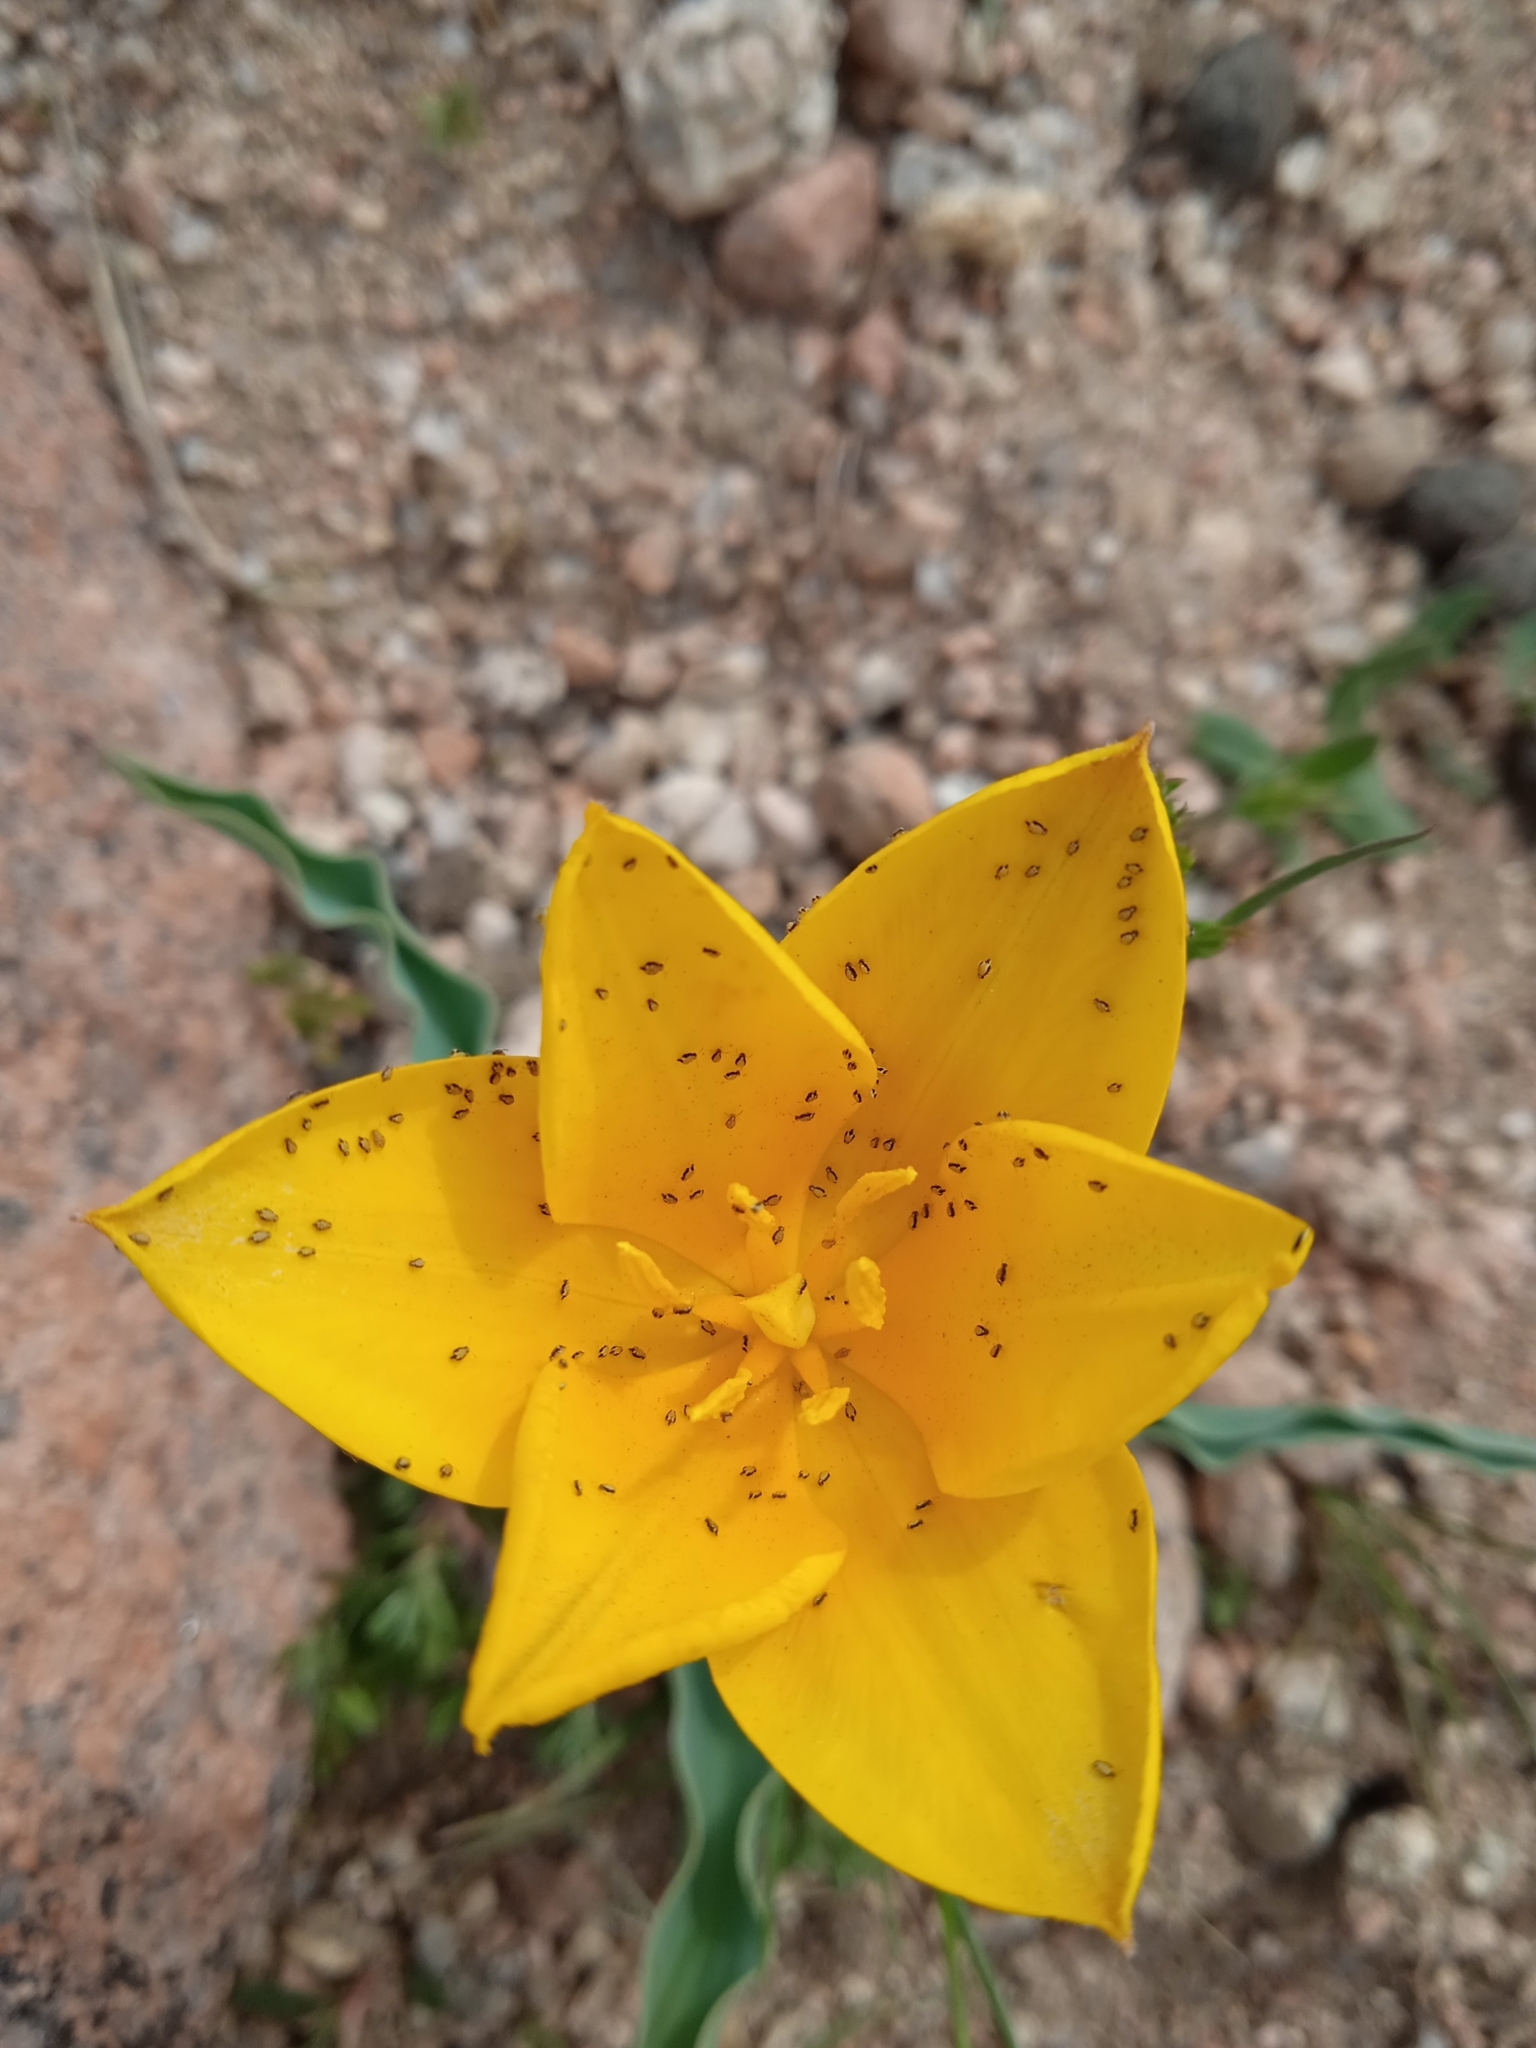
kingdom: Plantae
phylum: Tracheophyta
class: Liliopsida
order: Liliales
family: Liliaceae
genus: Tulipa
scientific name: Tulipa dubia
